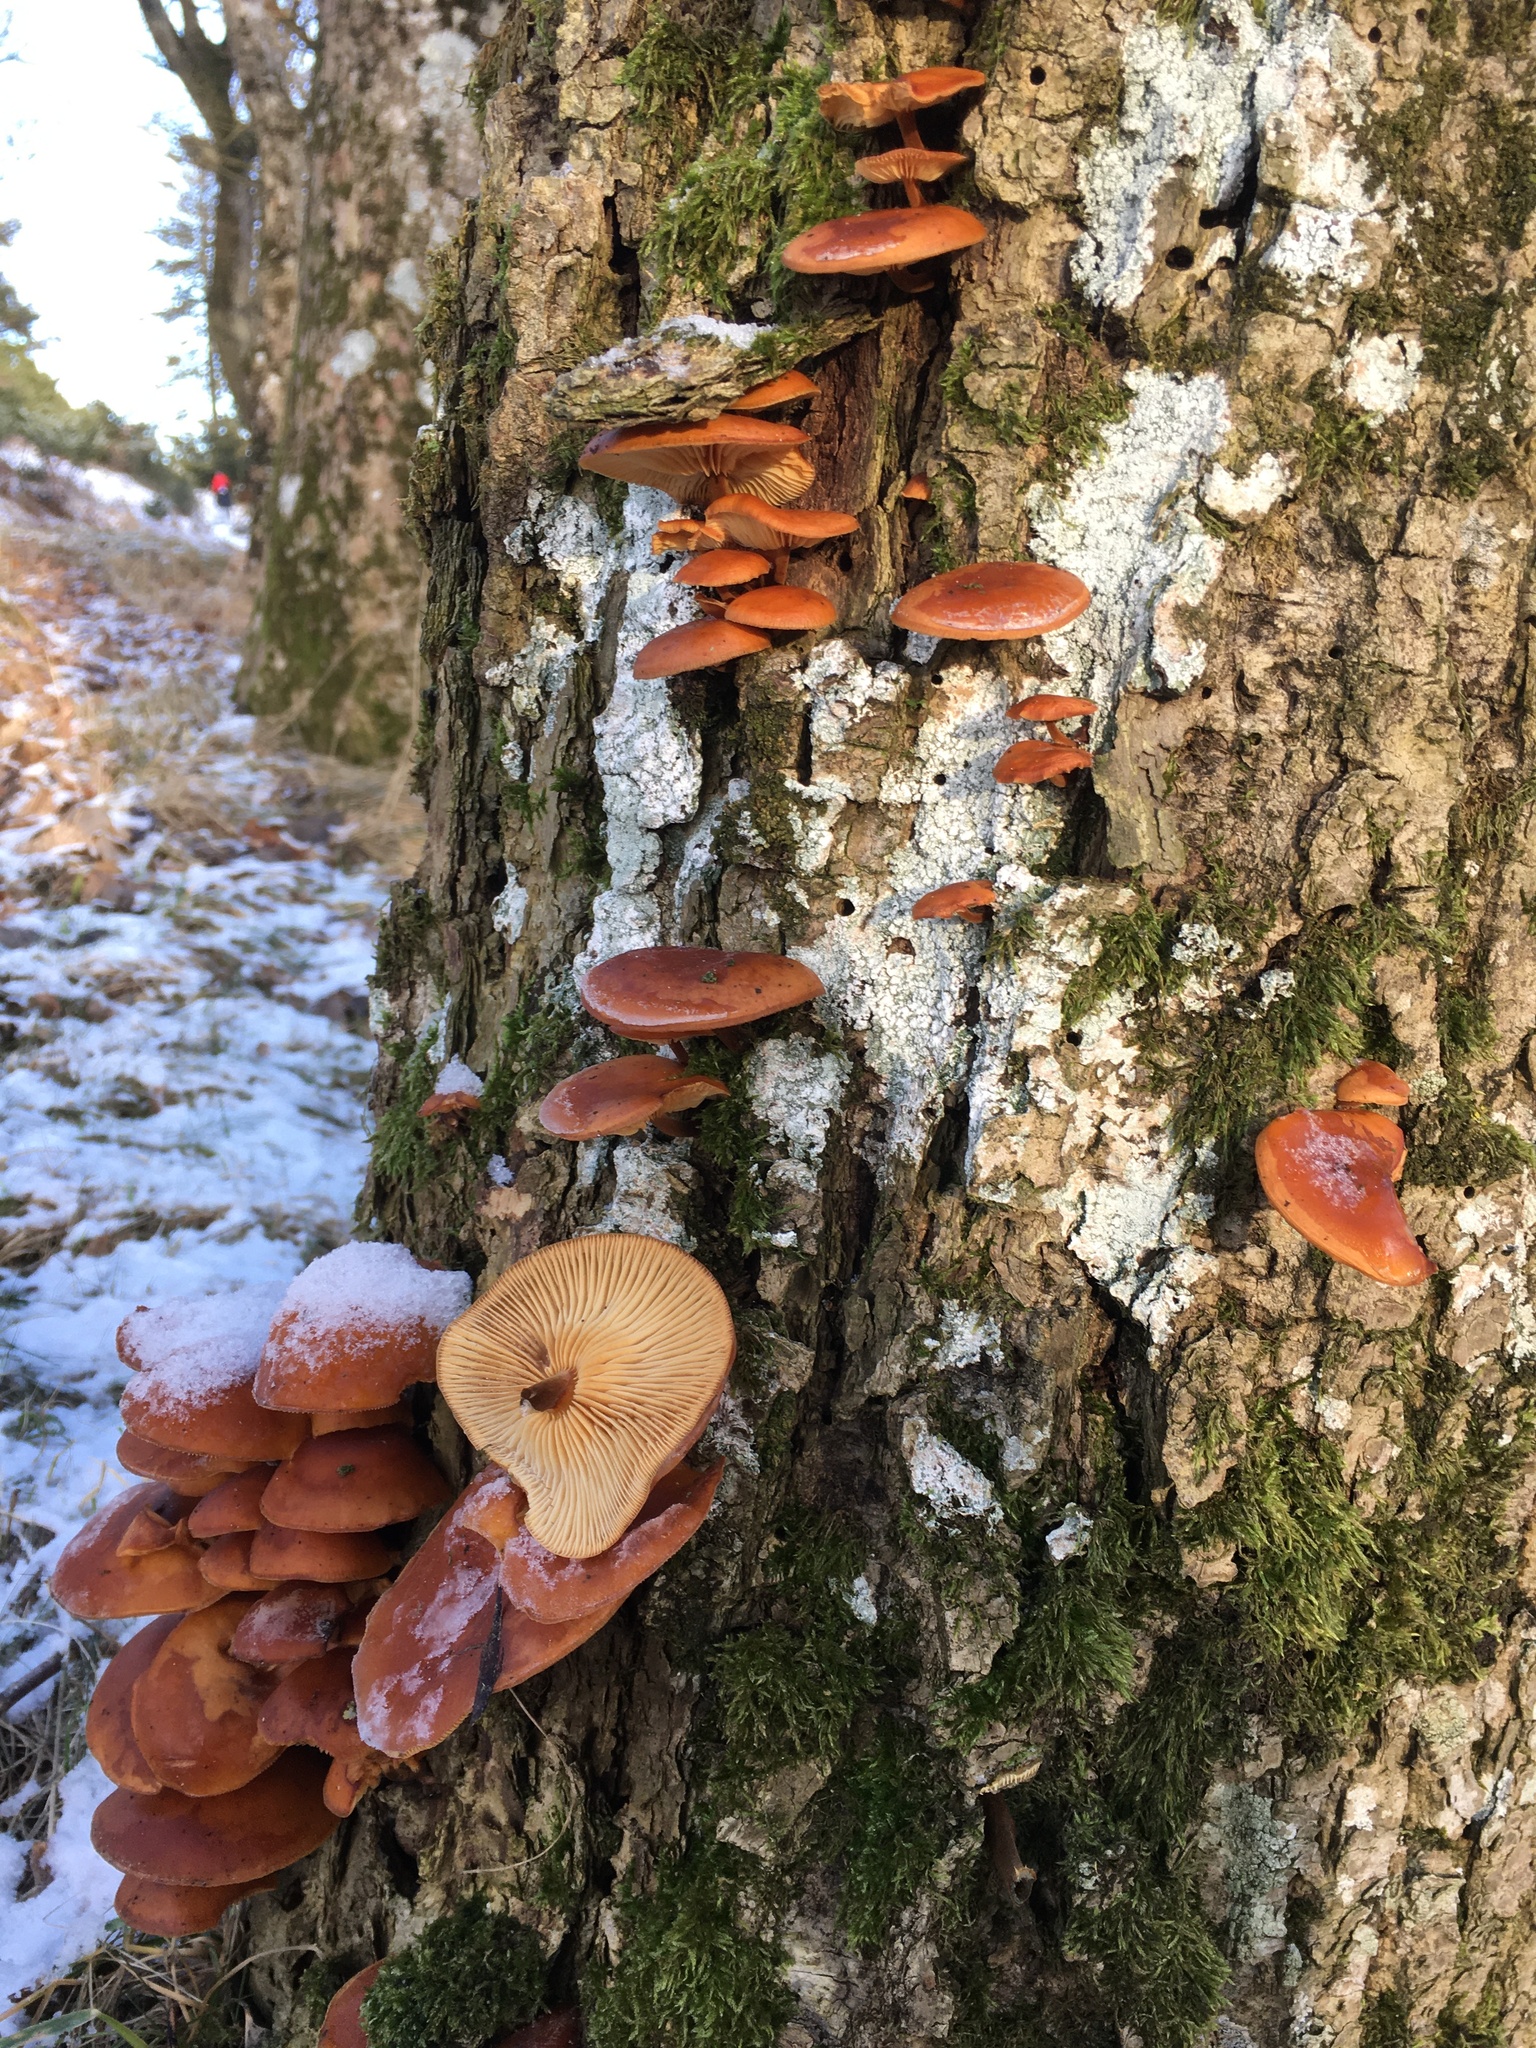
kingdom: Fungi
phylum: Basidiomycota
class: Agaricomycetes
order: Agaricales
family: Physalacriaceae
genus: Flammulina
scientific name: Flammulina
